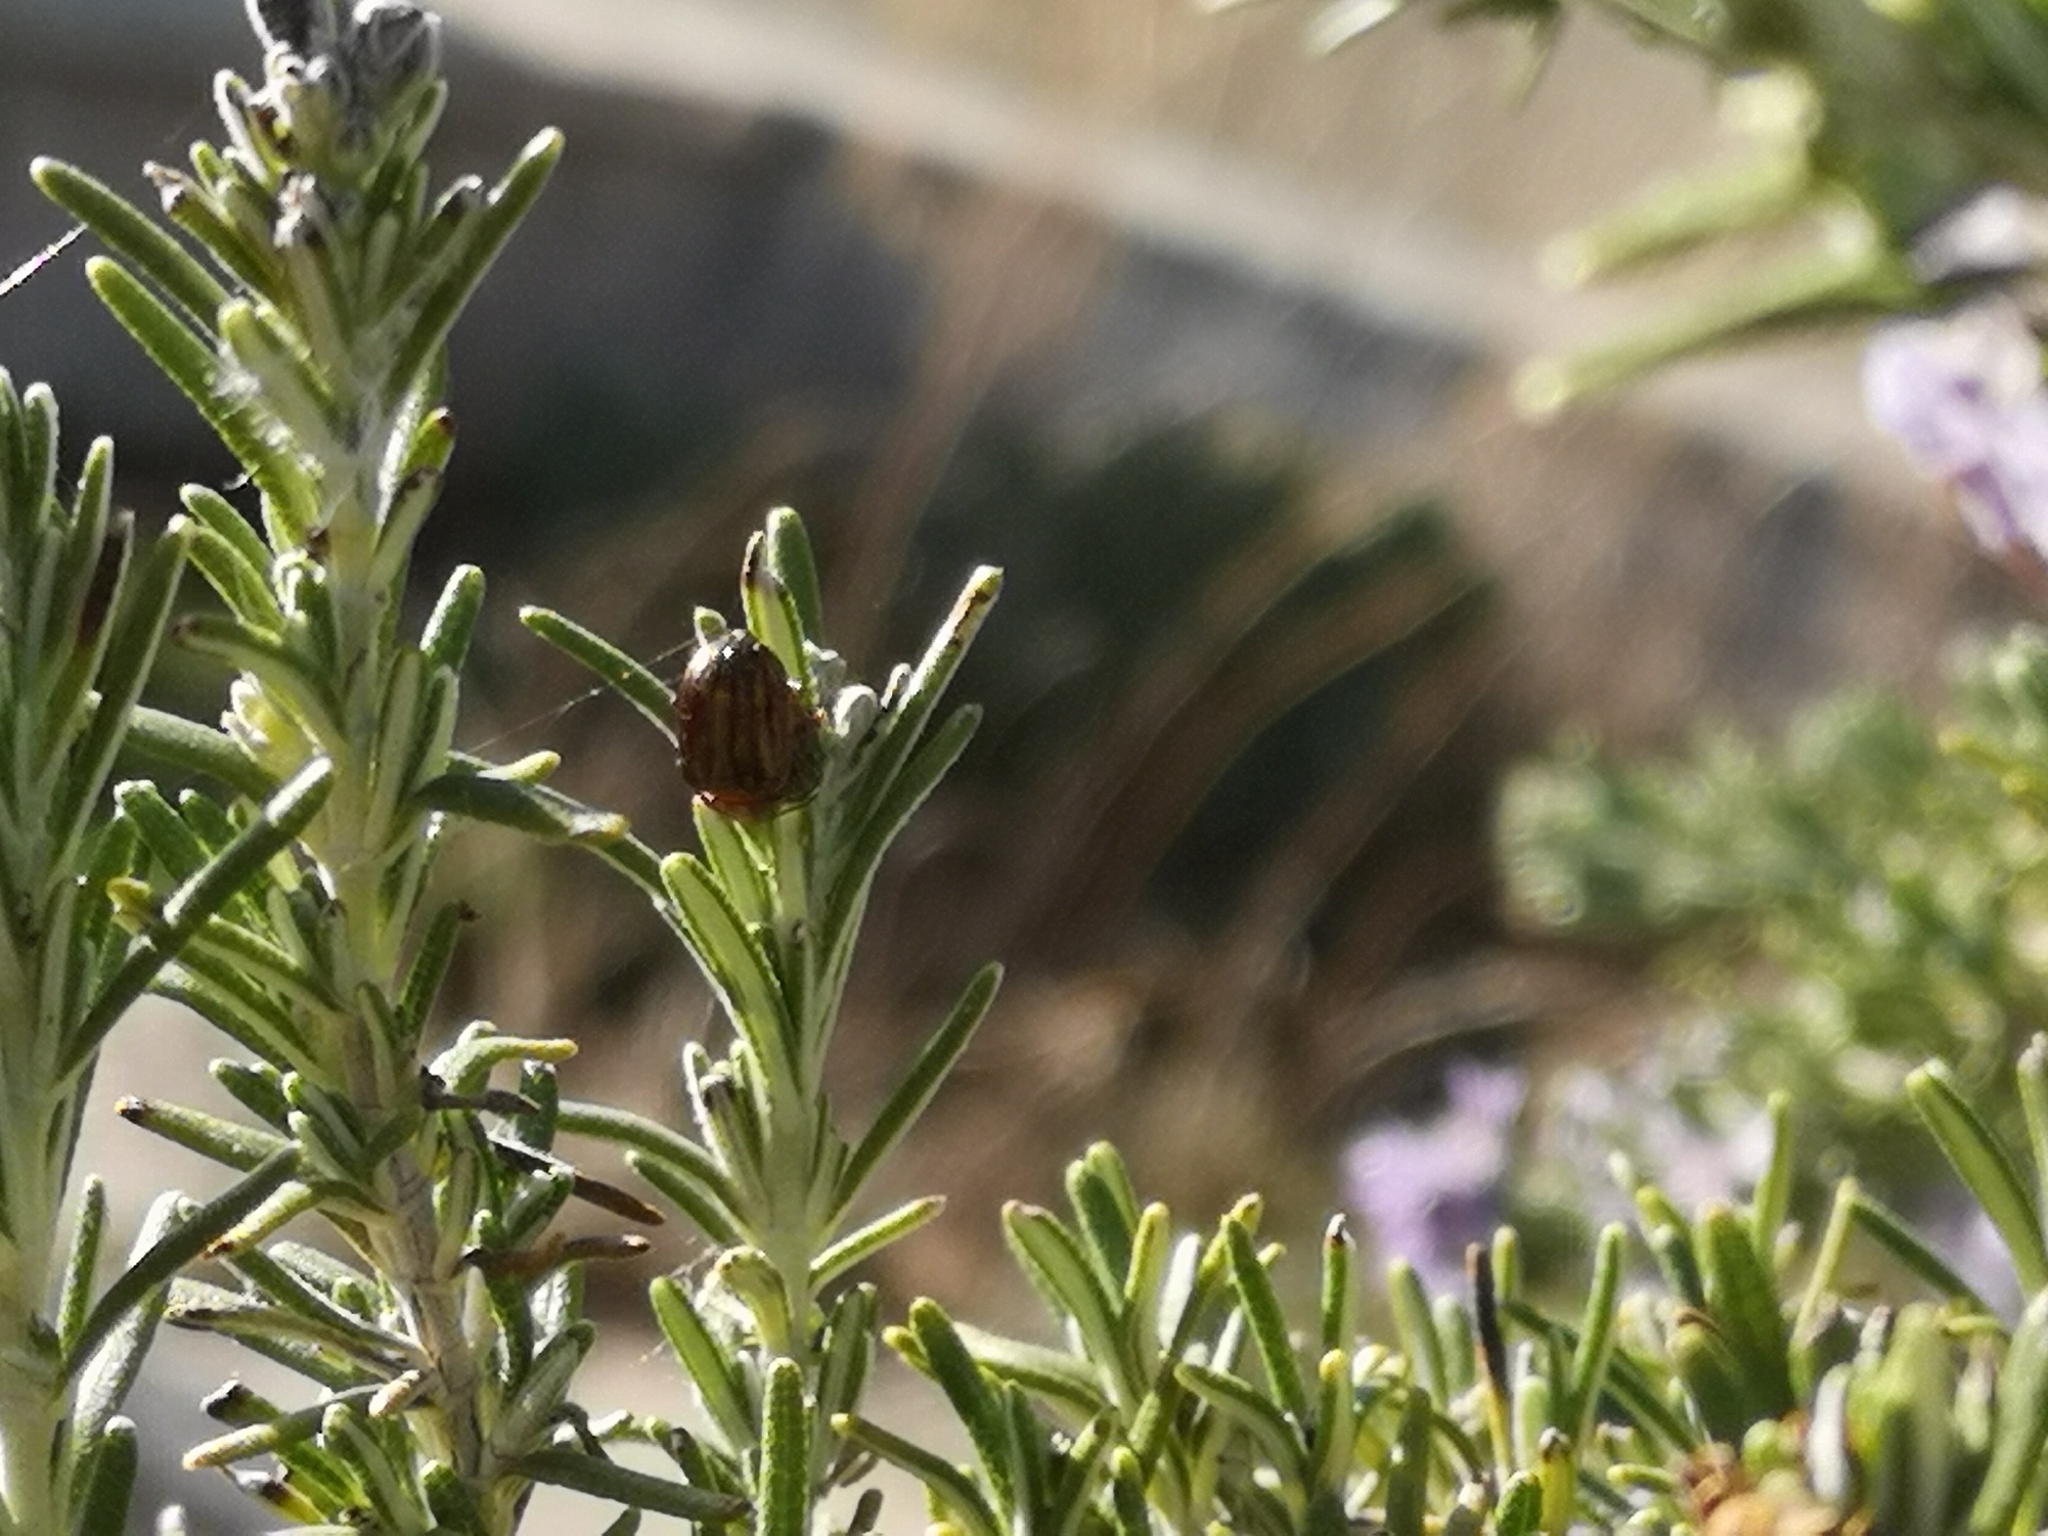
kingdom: Animalia
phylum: Arthropoda
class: Insecta
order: Coleoptera
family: Chrysomelidae
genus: Chrysolina
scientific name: Chrysolina americana
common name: Rosemary beetle
